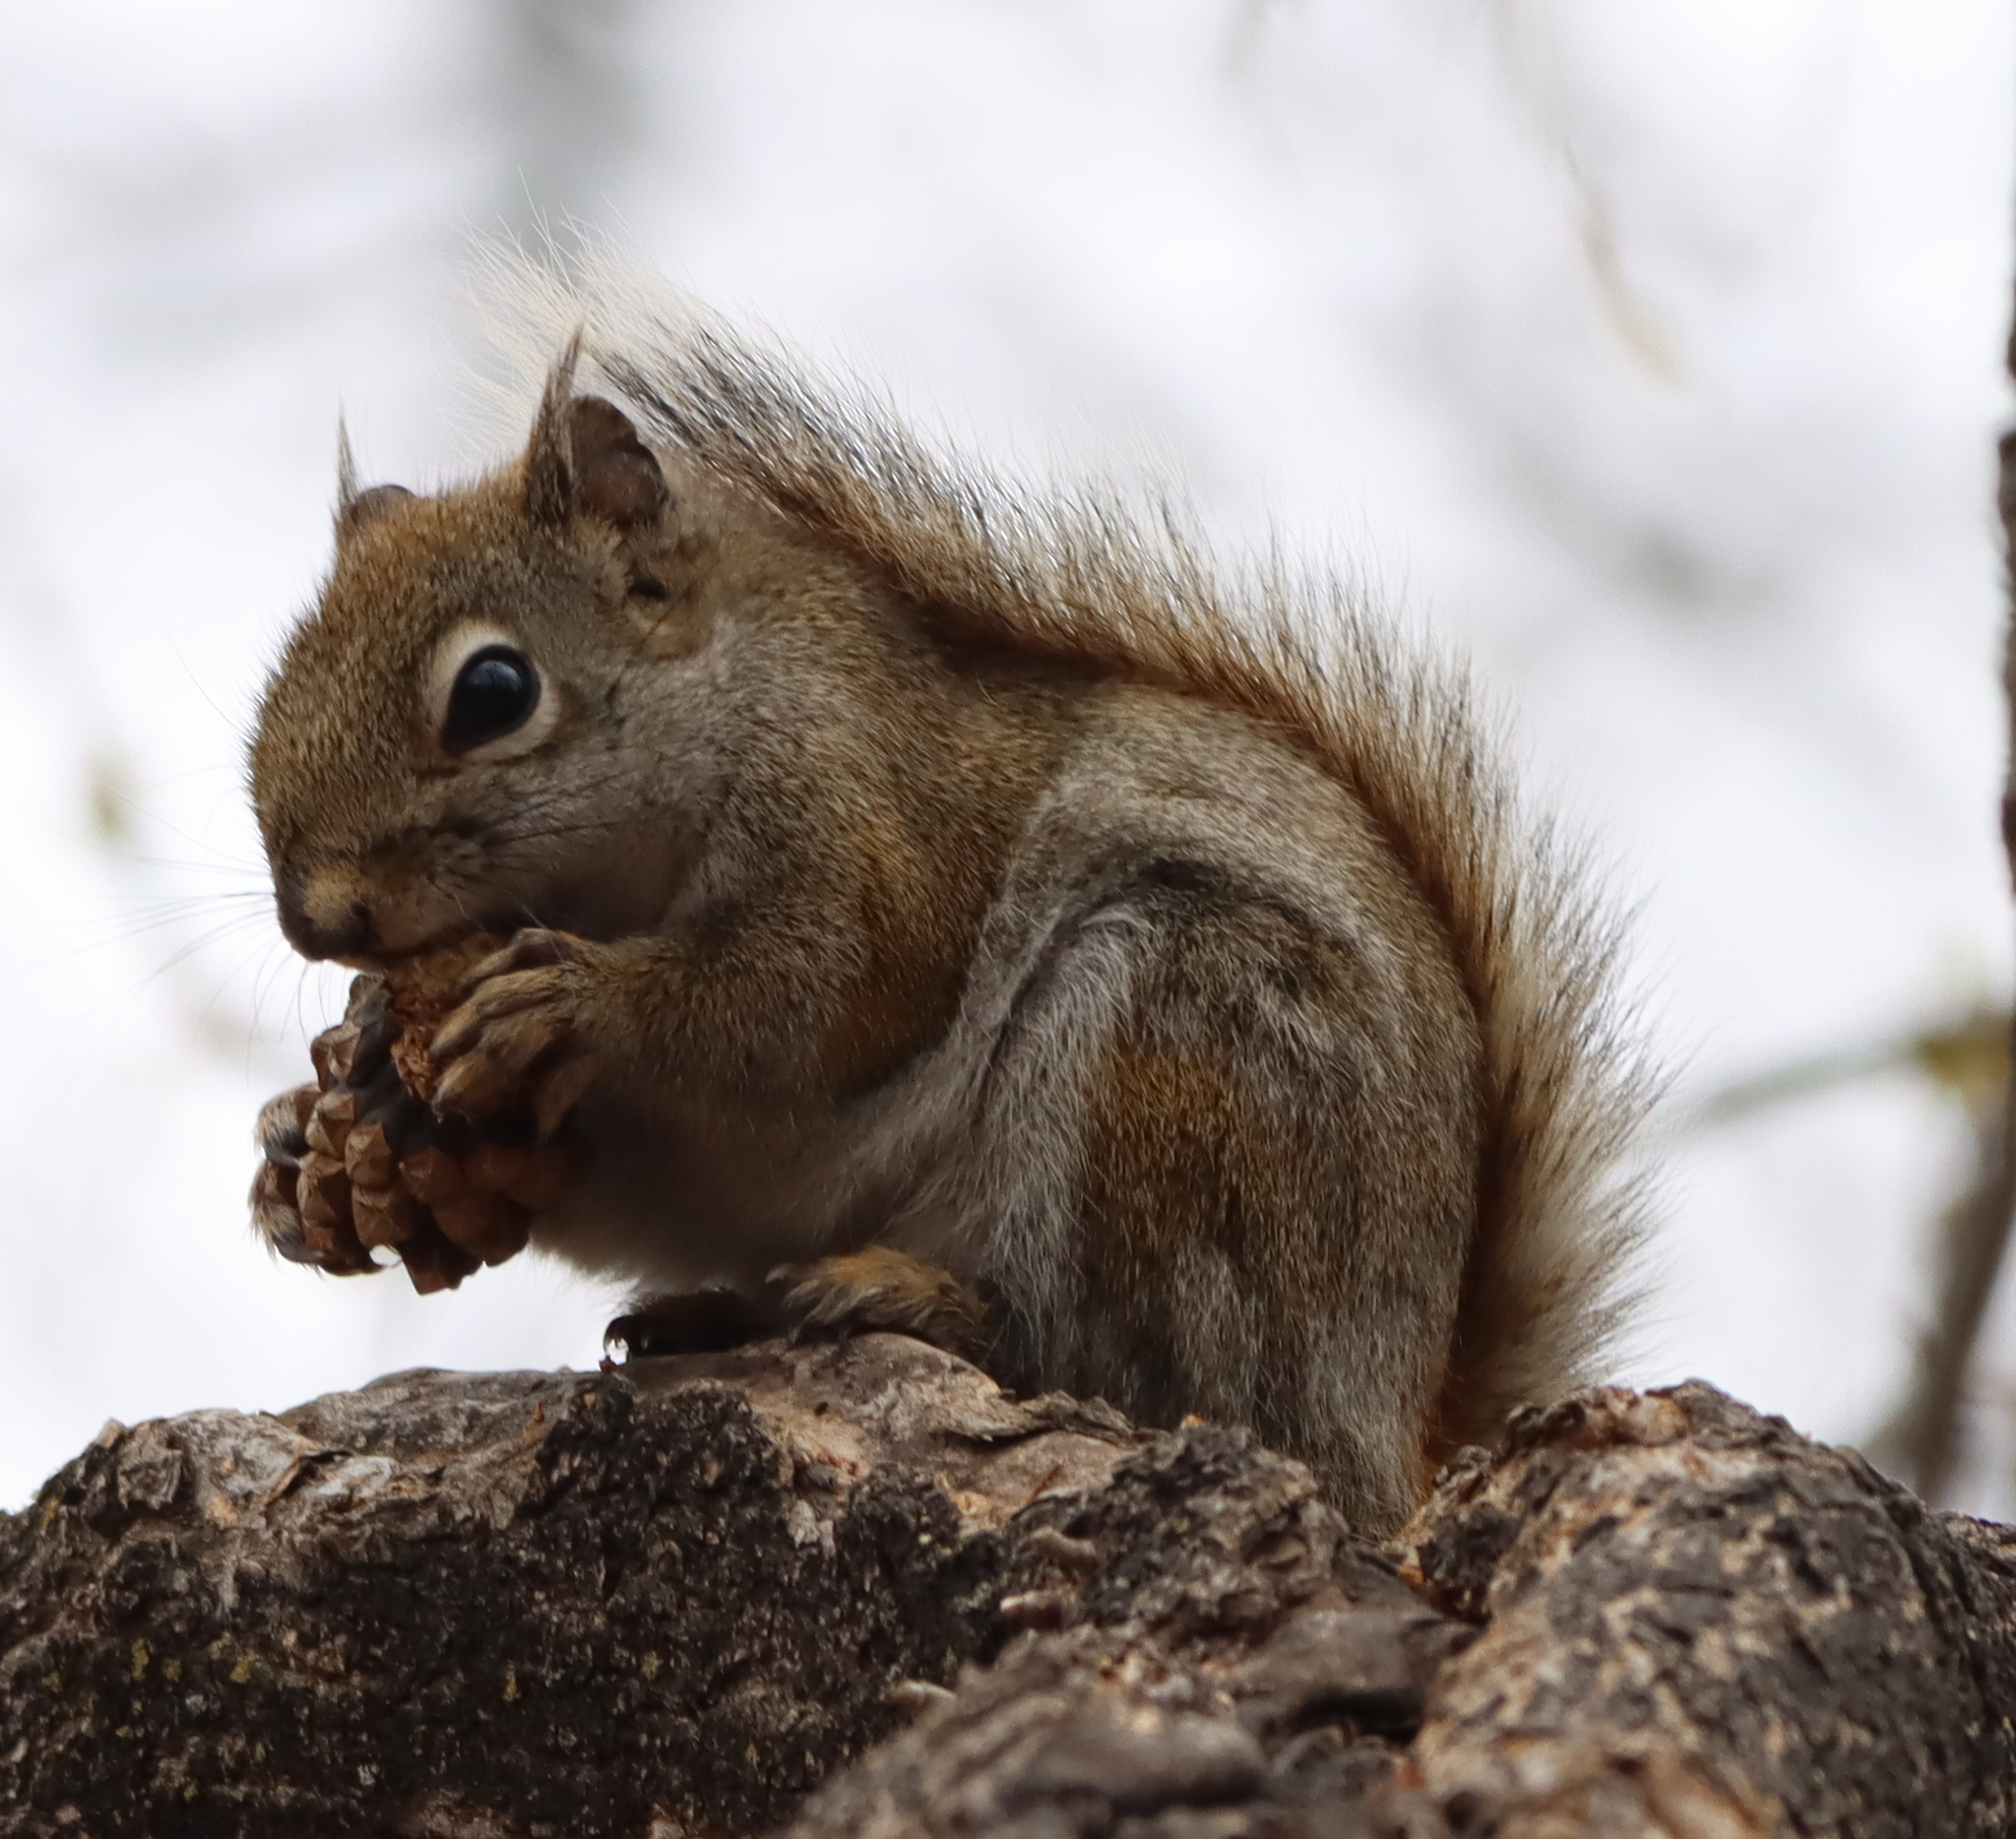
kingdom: Animalia
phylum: Chordata
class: Mammalia
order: Rodentia
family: Sciuridae
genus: Tamiasciurus
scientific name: Tamiasciurus hudsonicus
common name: Red squirrel
